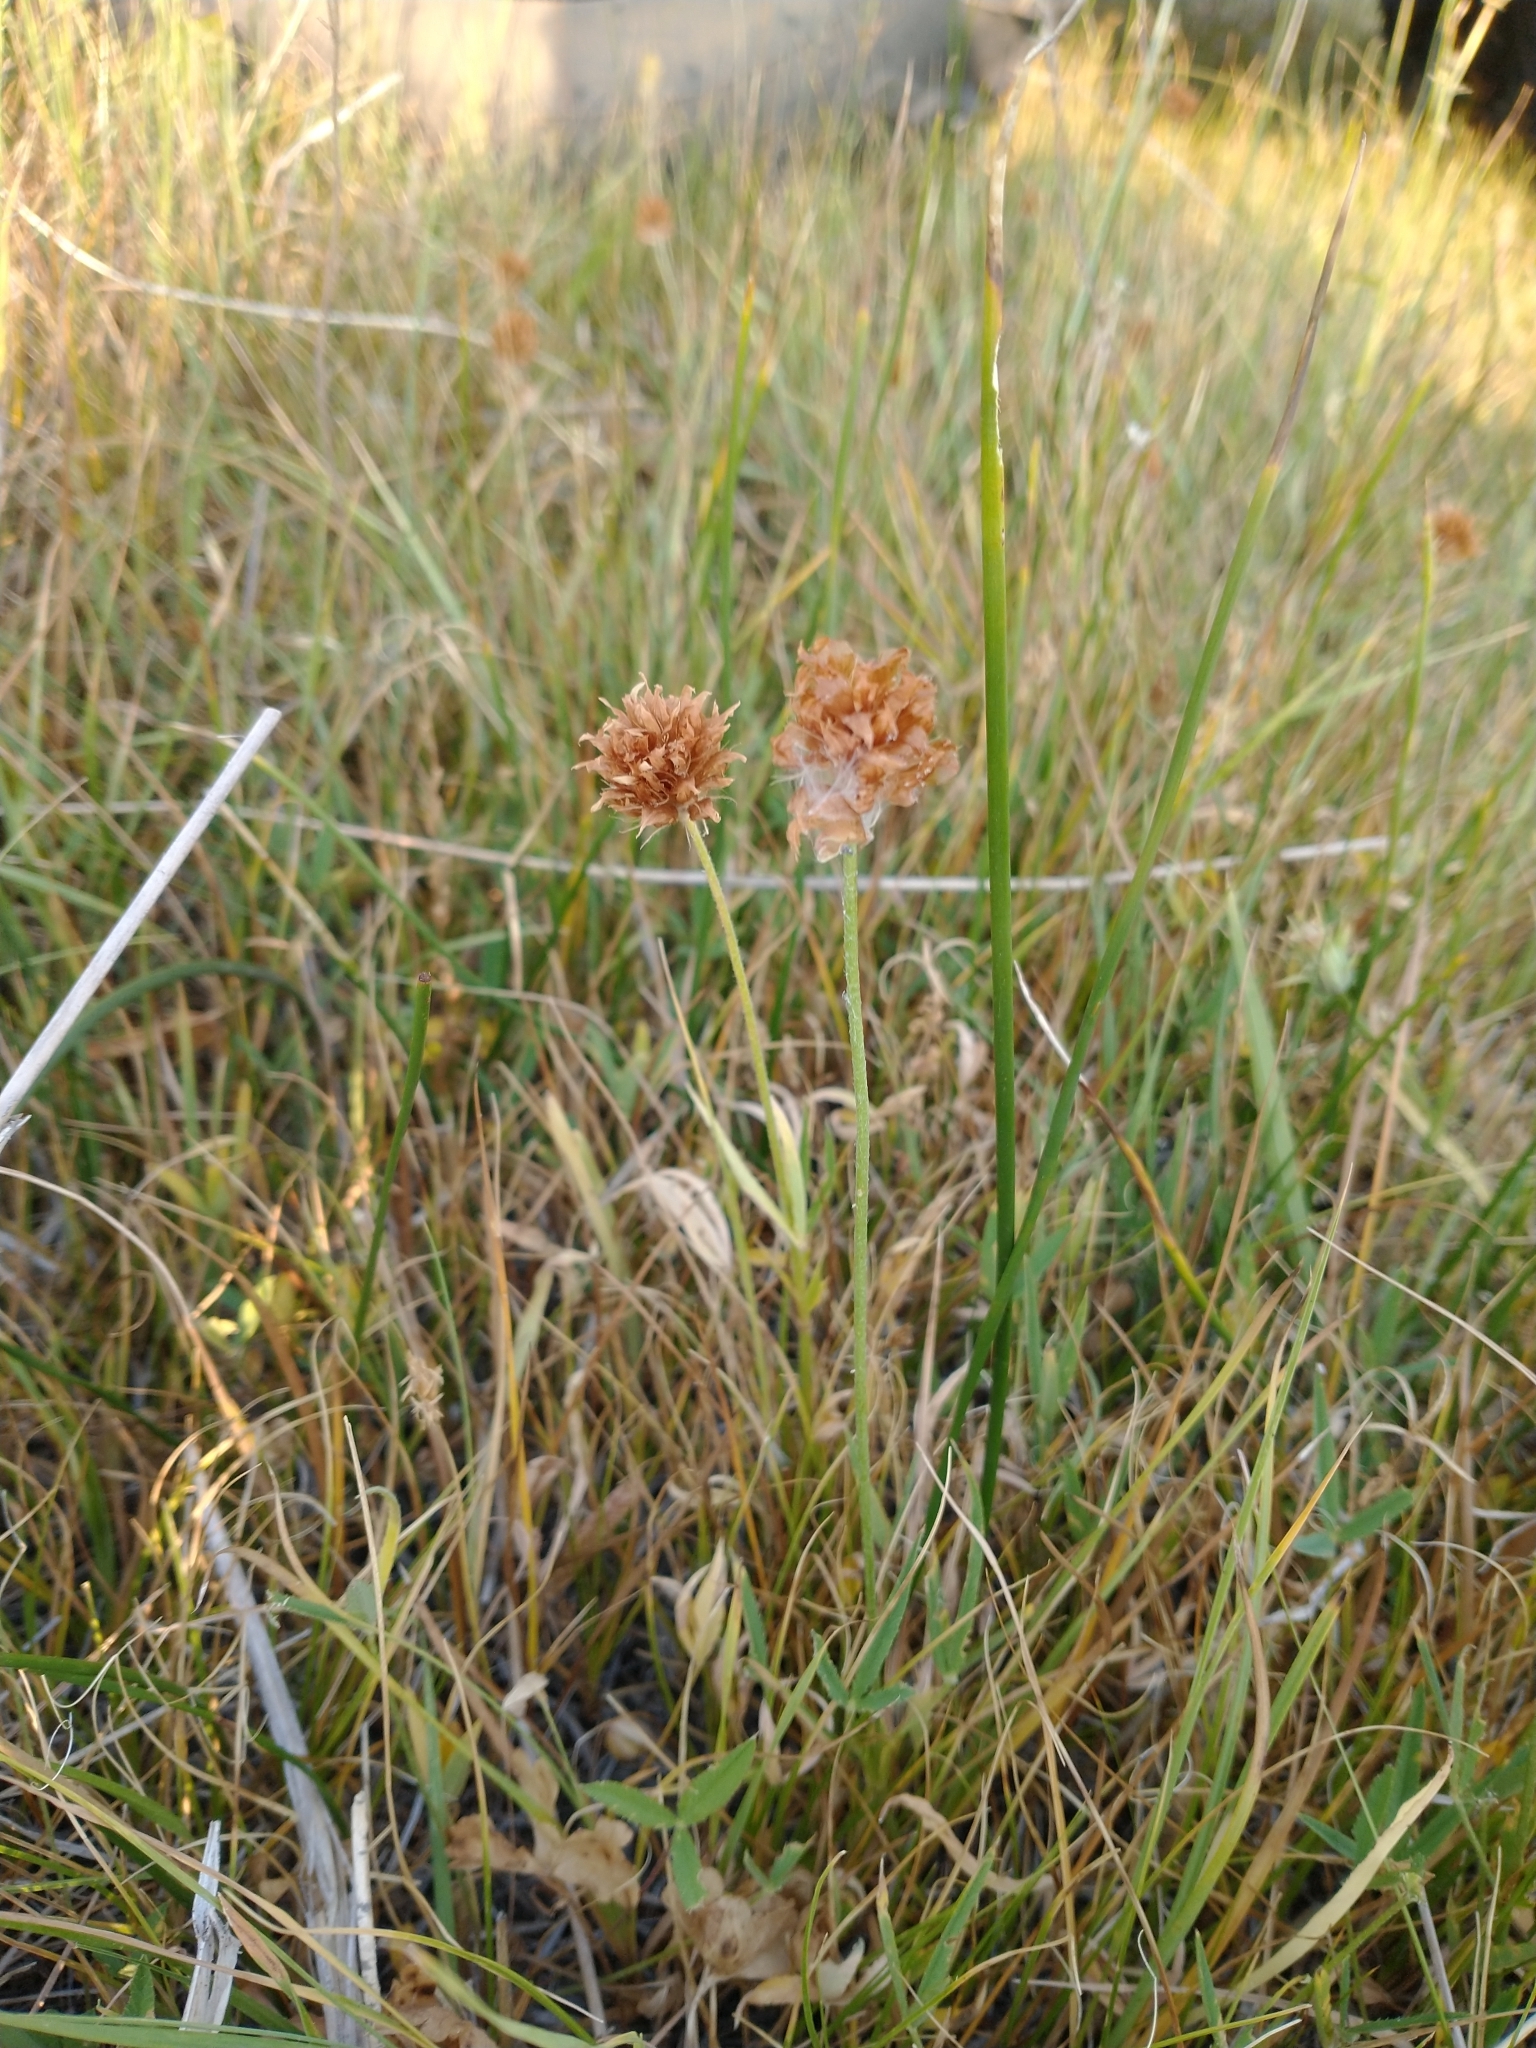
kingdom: Plantae
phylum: Tracheophyta
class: Magnoliopsida
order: Fabales
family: Fabaceae
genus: Trifolium
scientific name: Trifolium longipes
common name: Long-stalk clover
